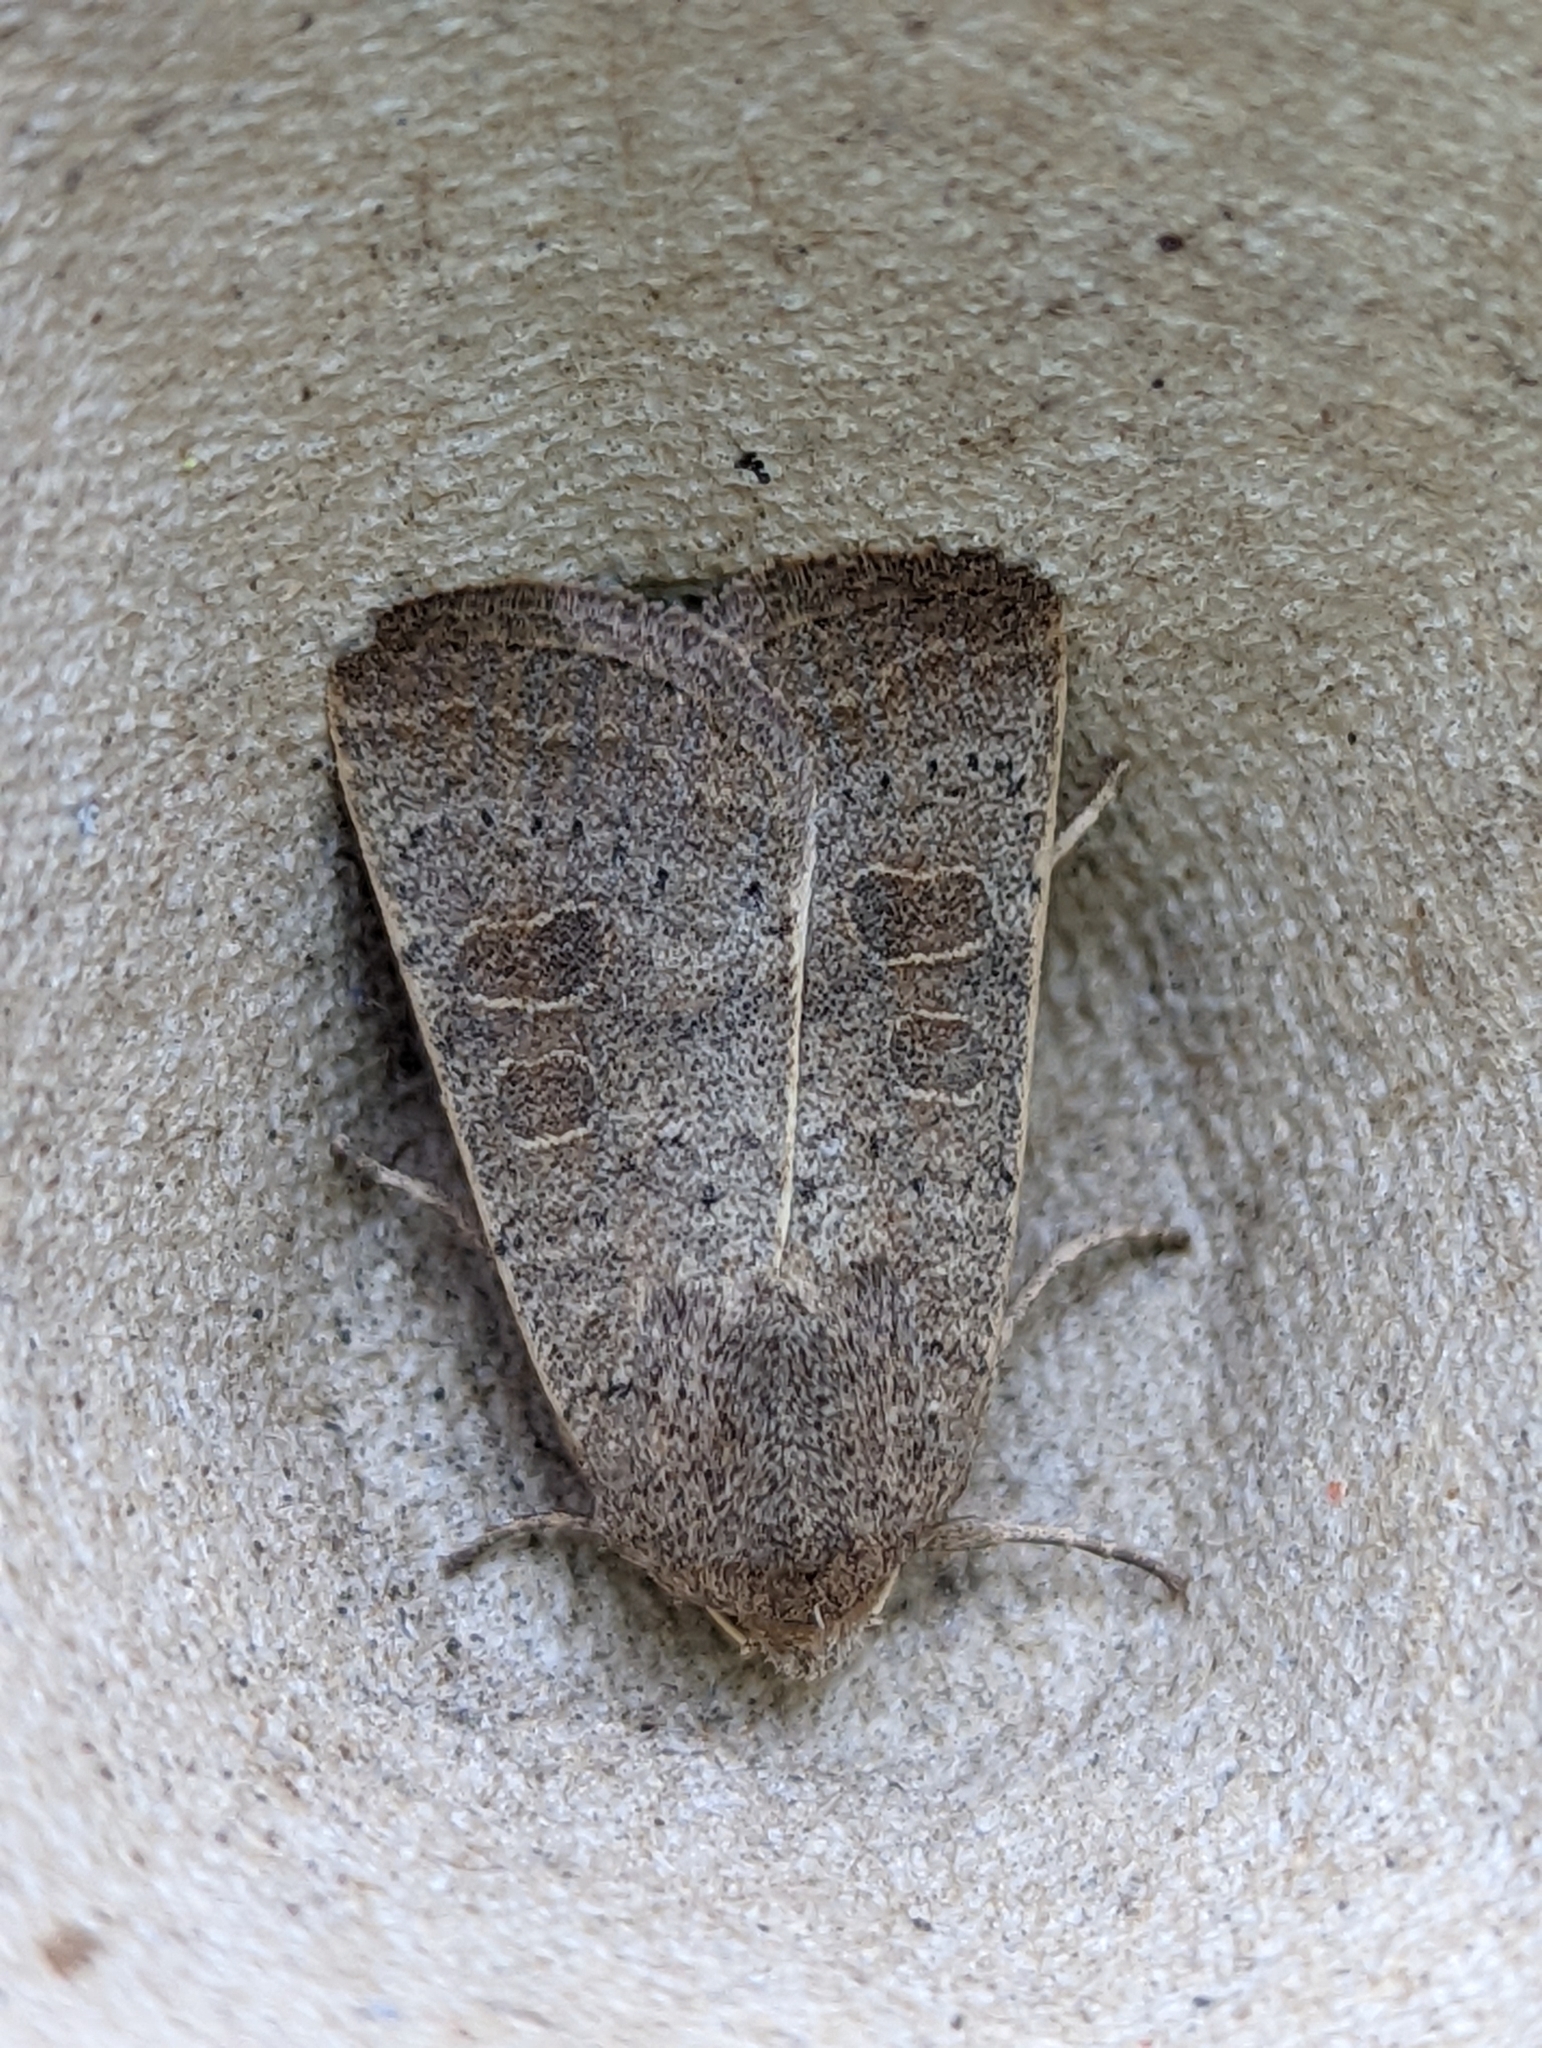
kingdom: Animalia
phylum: Arthropoda
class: Insecta
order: Lepidoptera
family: Noctuidae
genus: Hoplodrina
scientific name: Hoplodrina ambigua
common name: Vine's rustic
